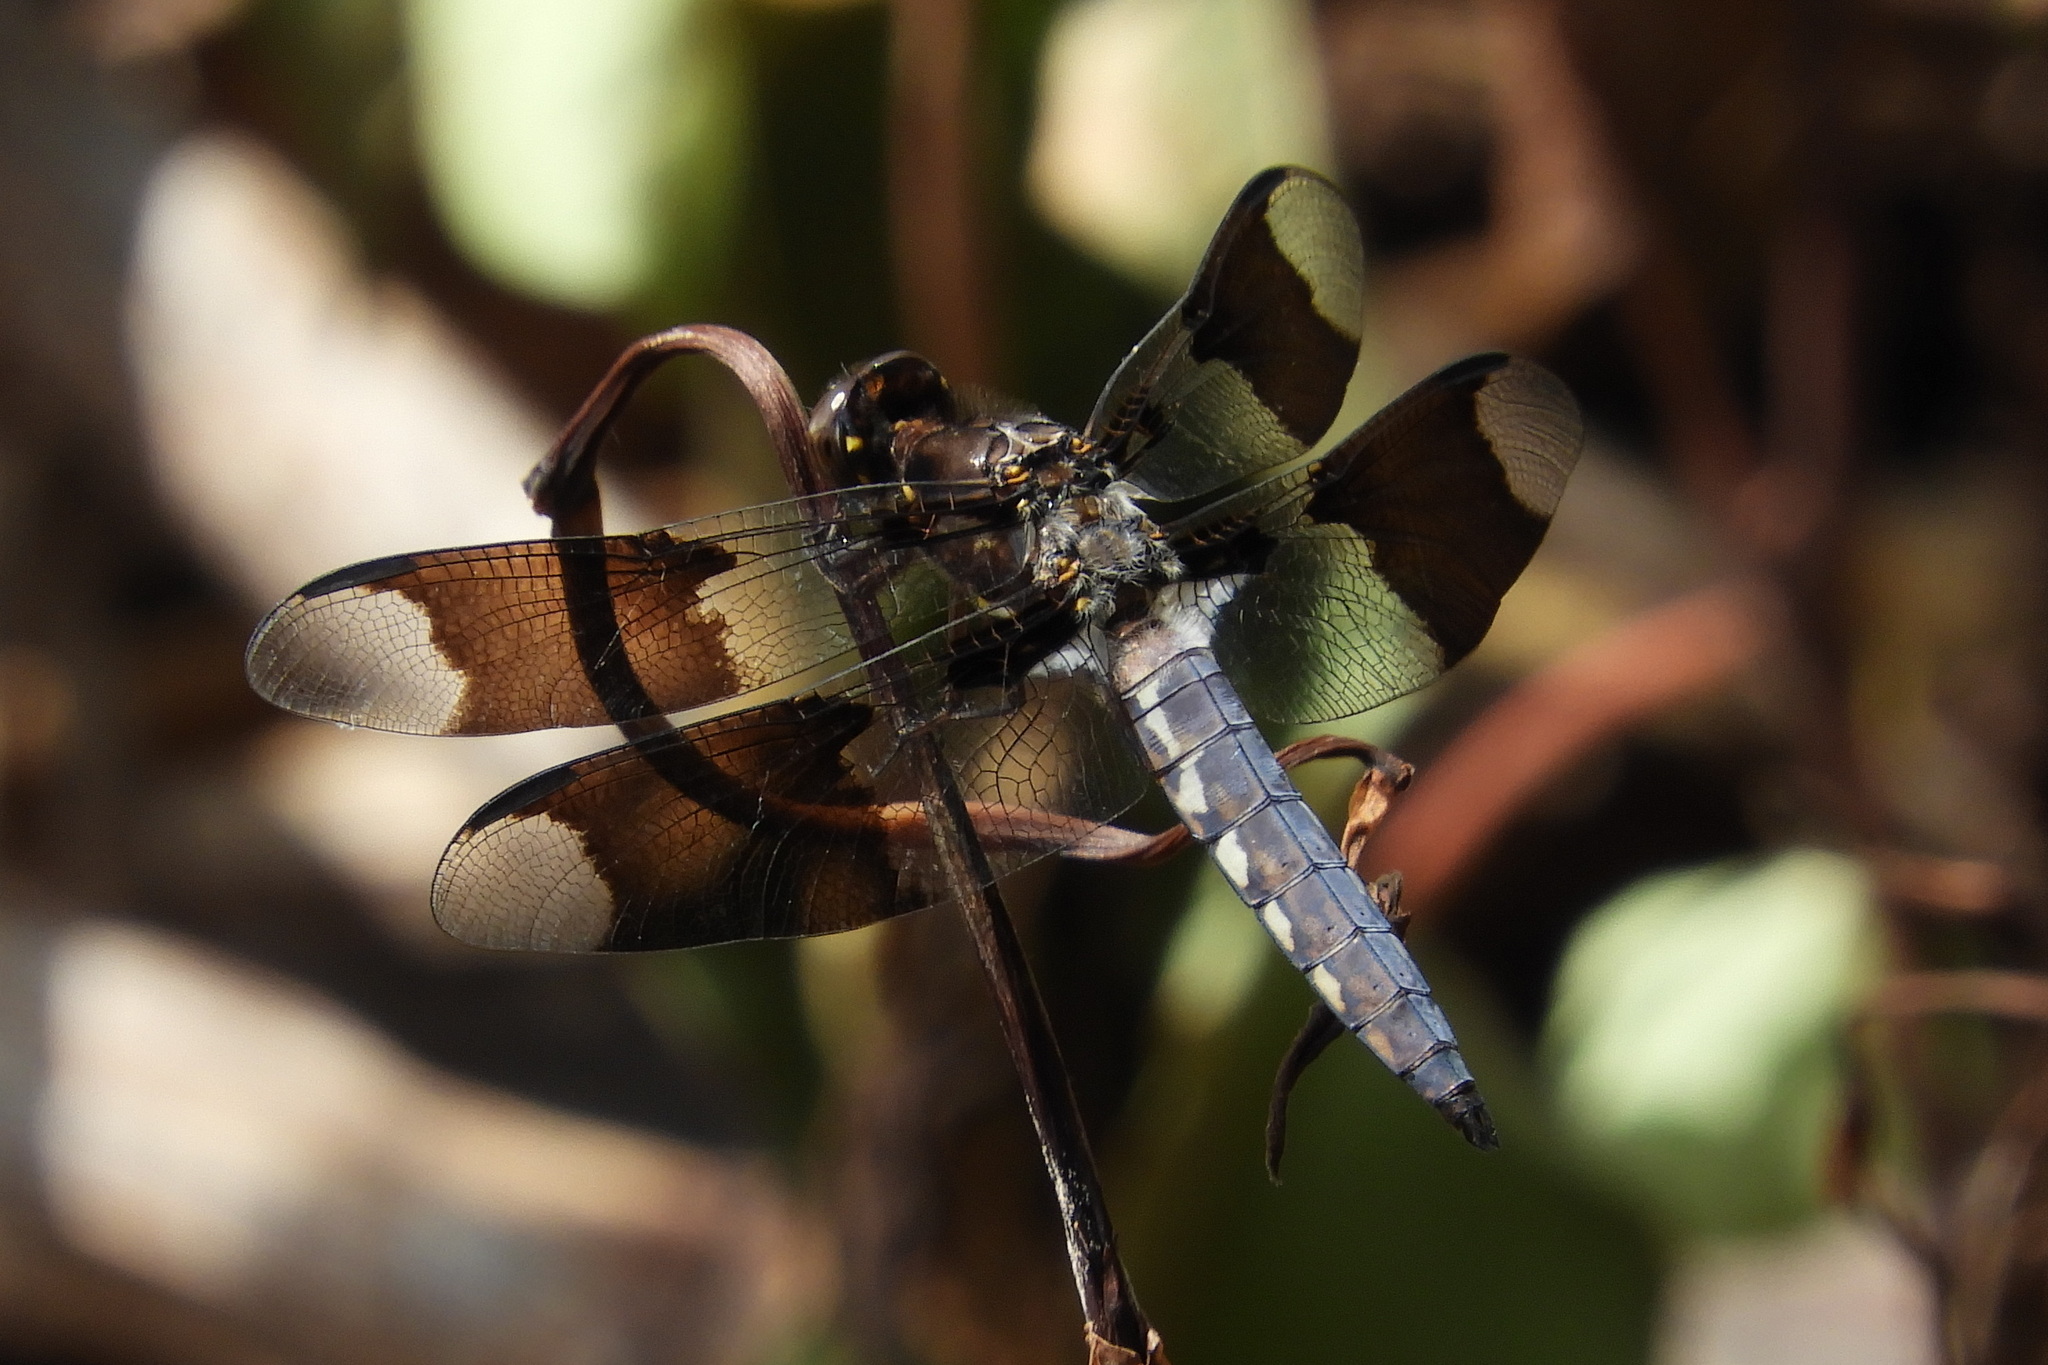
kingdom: Animalia
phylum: Arthropoda
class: Insecta
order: Odonata
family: Libellulidae
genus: Plathemis
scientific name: Plathemis lydia
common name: Common whitetail
